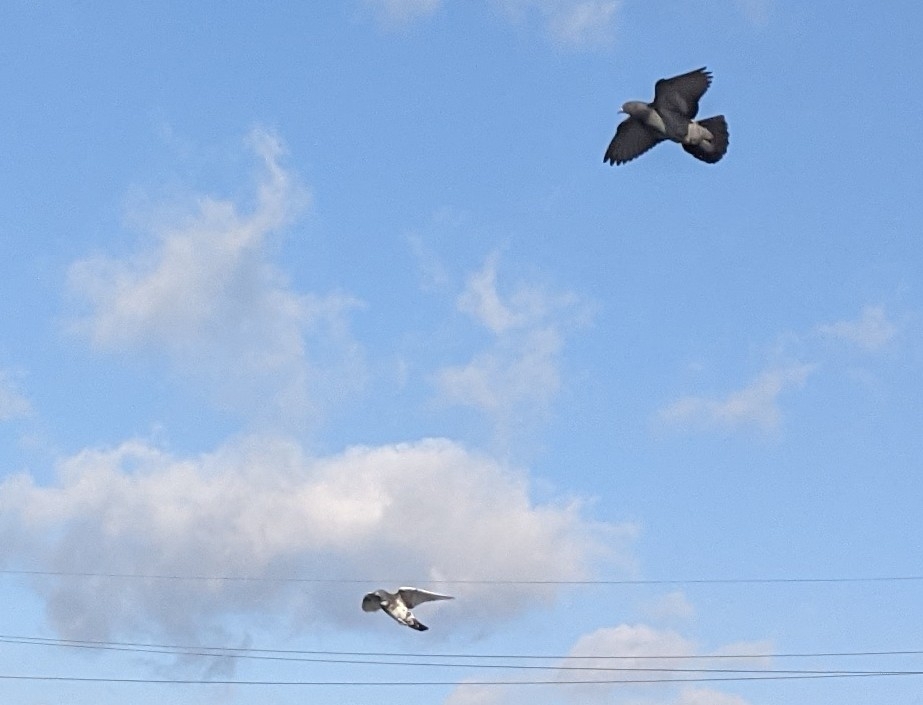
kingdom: Animalia
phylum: Chordata
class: Aves
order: Columbiformes
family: Columbidae
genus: Columba
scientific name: Columba livia
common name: Rock pigeon
